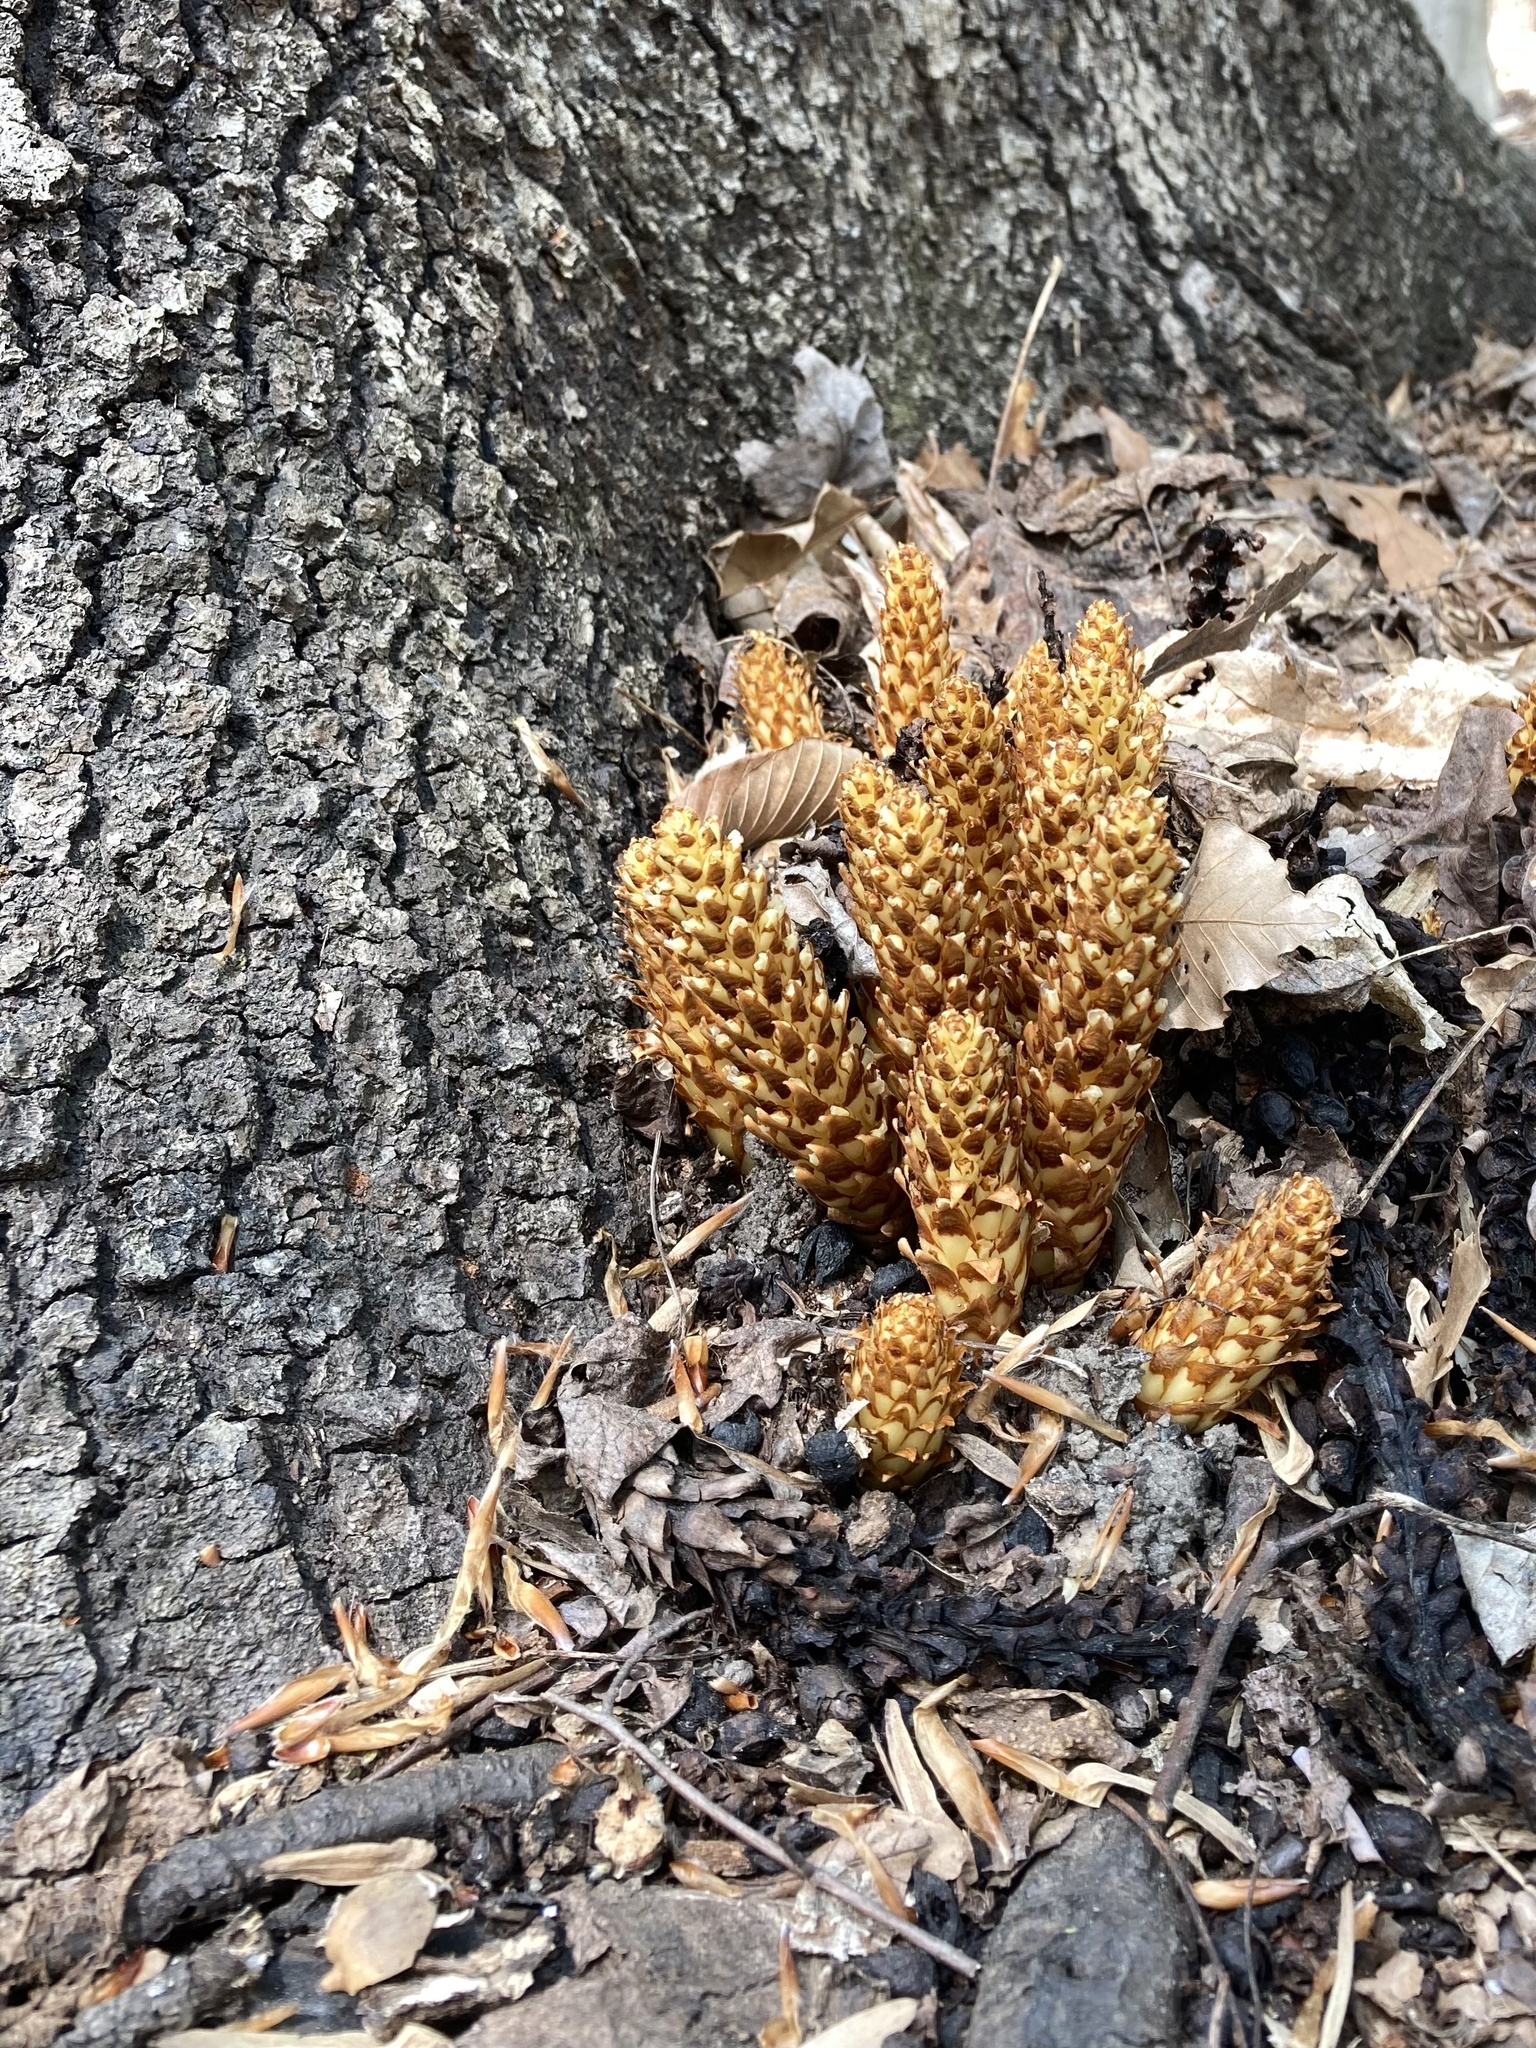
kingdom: Plantae
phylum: Tracheophyta
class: Magnoliopsida
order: Lamiales
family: Orobanchaceae
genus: Conopholis
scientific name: Conopholis americana
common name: American cancer-root
